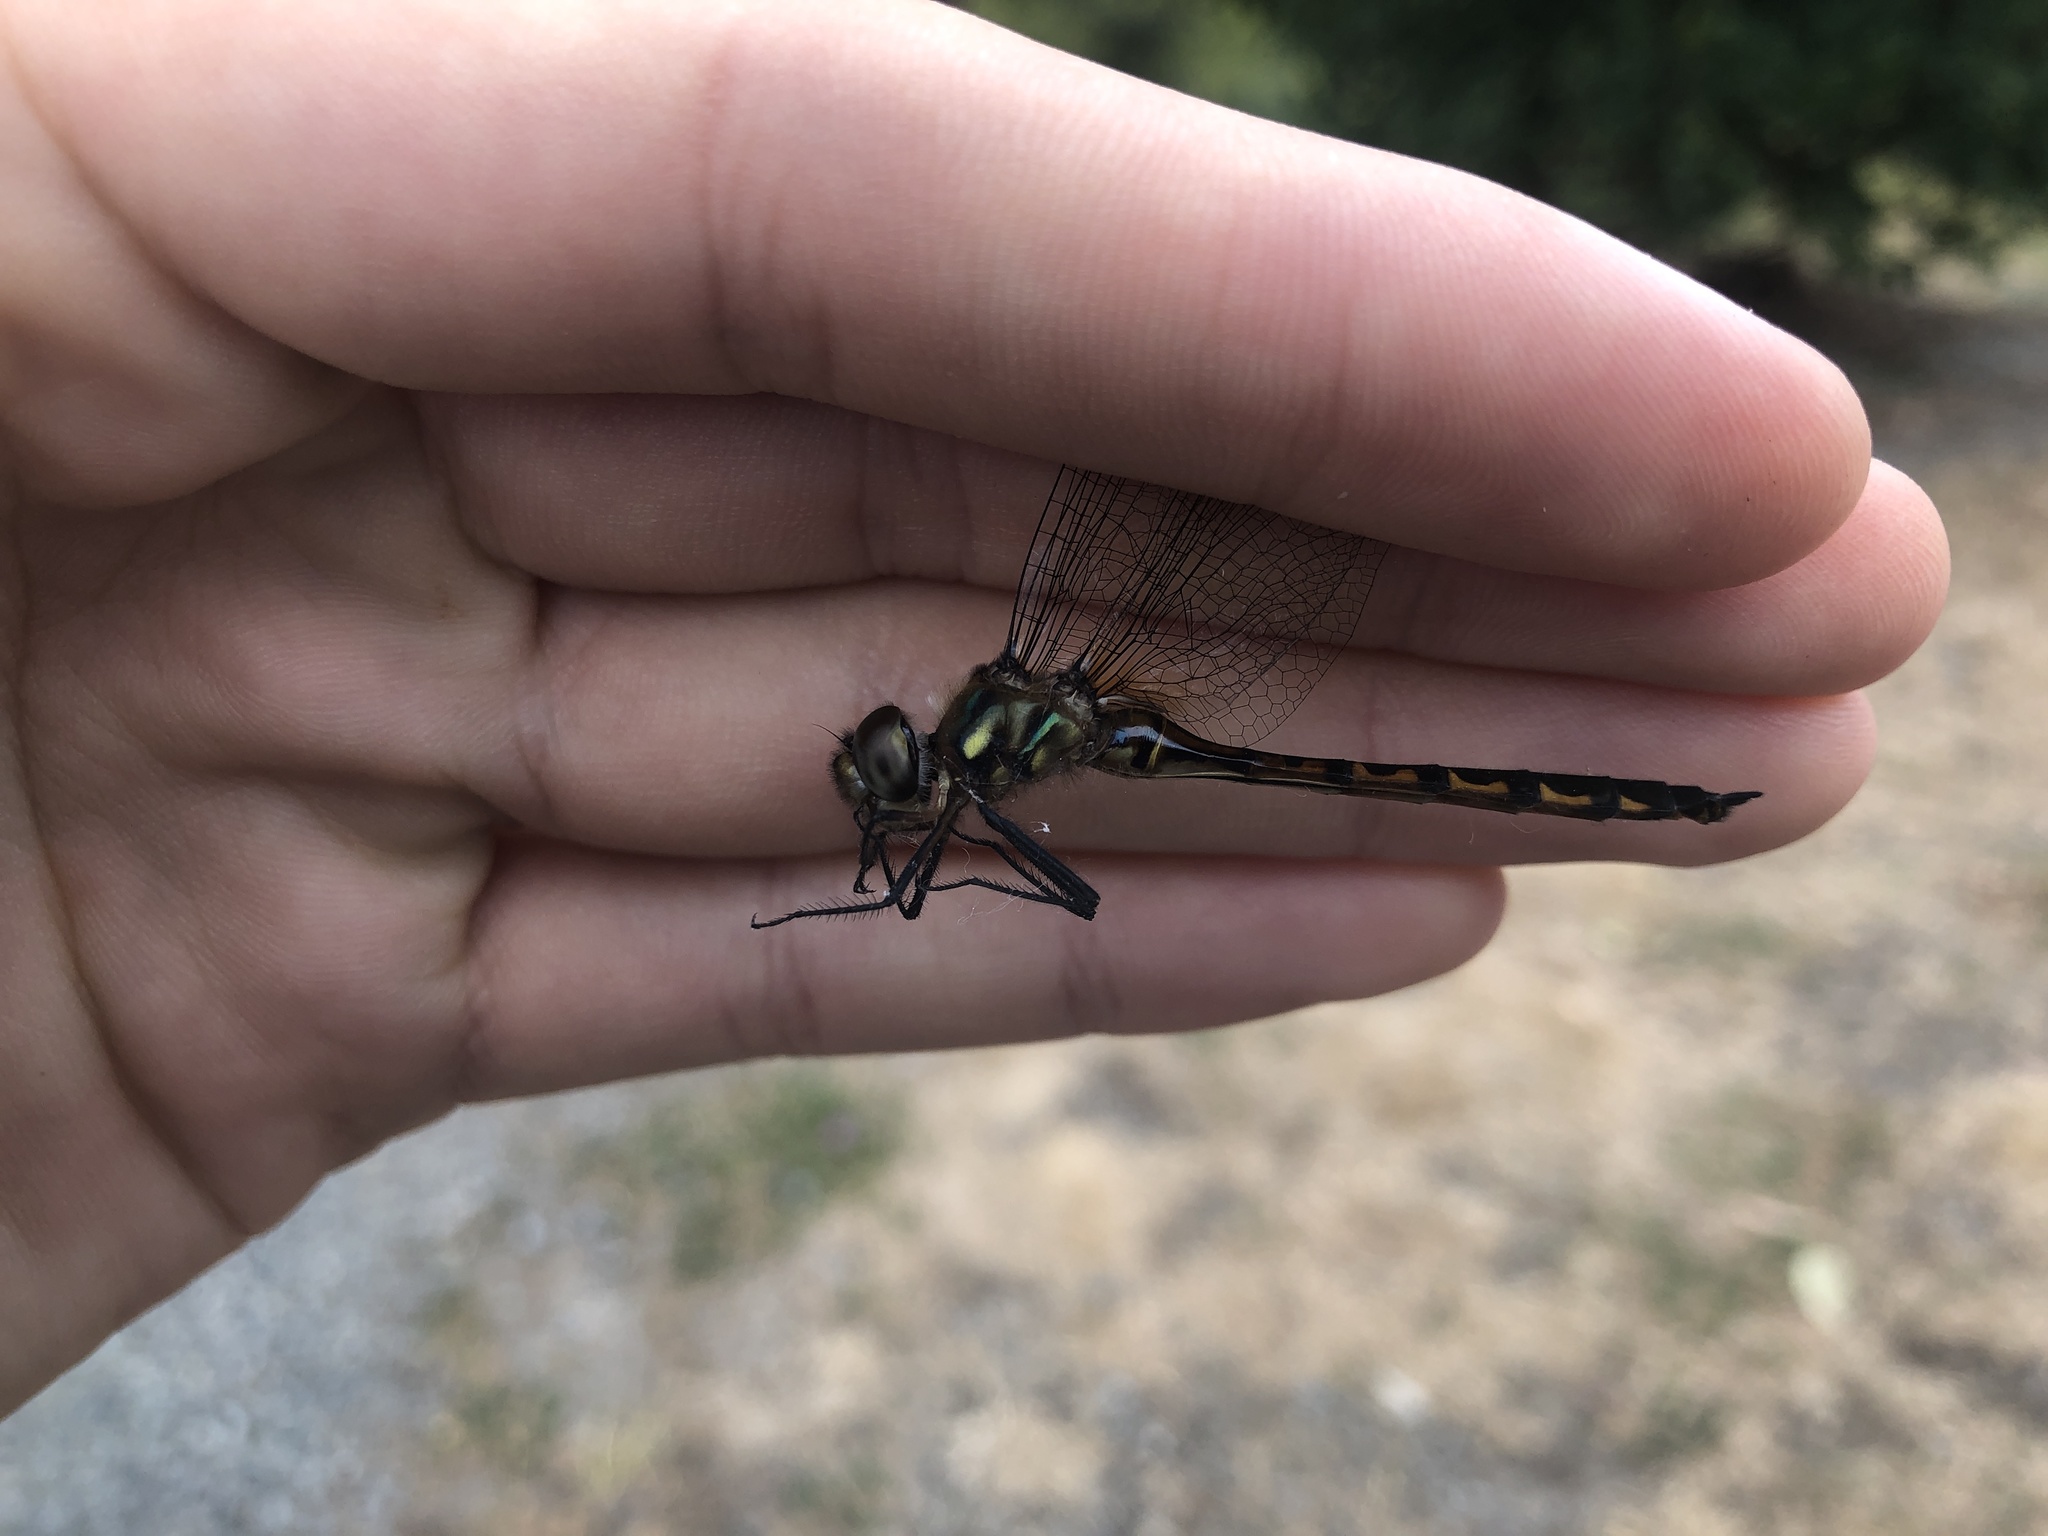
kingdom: Animalia
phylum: Arthropoda
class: Insecta
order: Odonata
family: Corduliidae
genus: Hemicordulia
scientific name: Hemicordulia armstrongi
